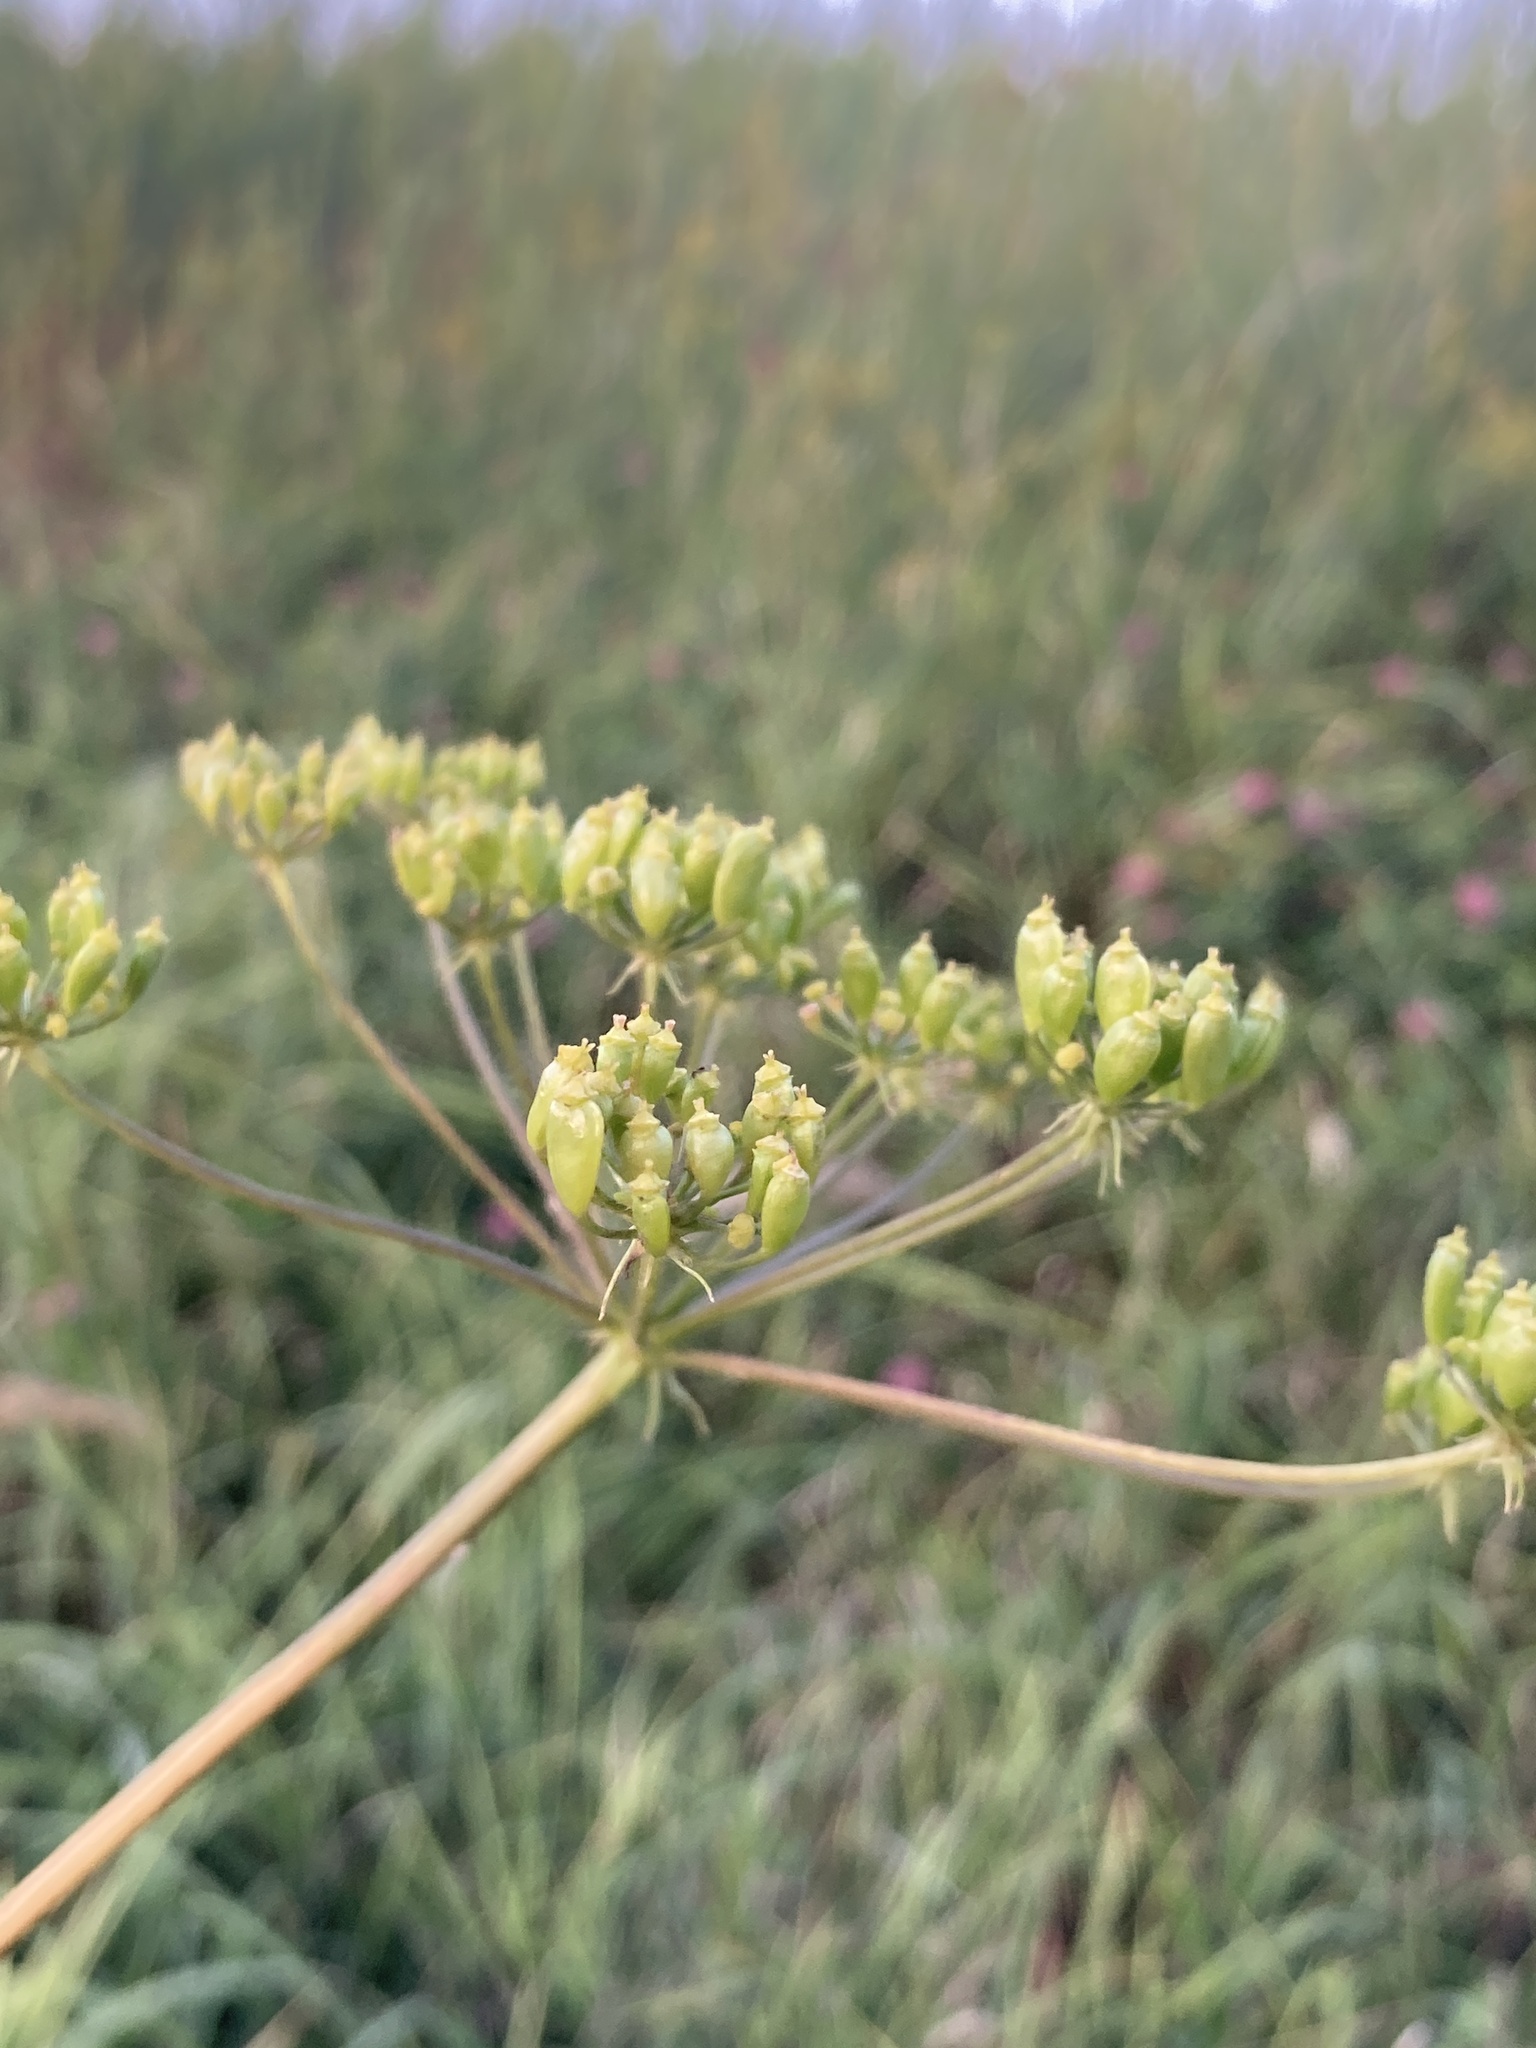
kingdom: Plantae
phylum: Tracheophyta
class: Magnoliopsida
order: Apiales
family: Apiaceae
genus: Heracleum
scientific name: Heracleum sphondylium
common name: Hogweed
